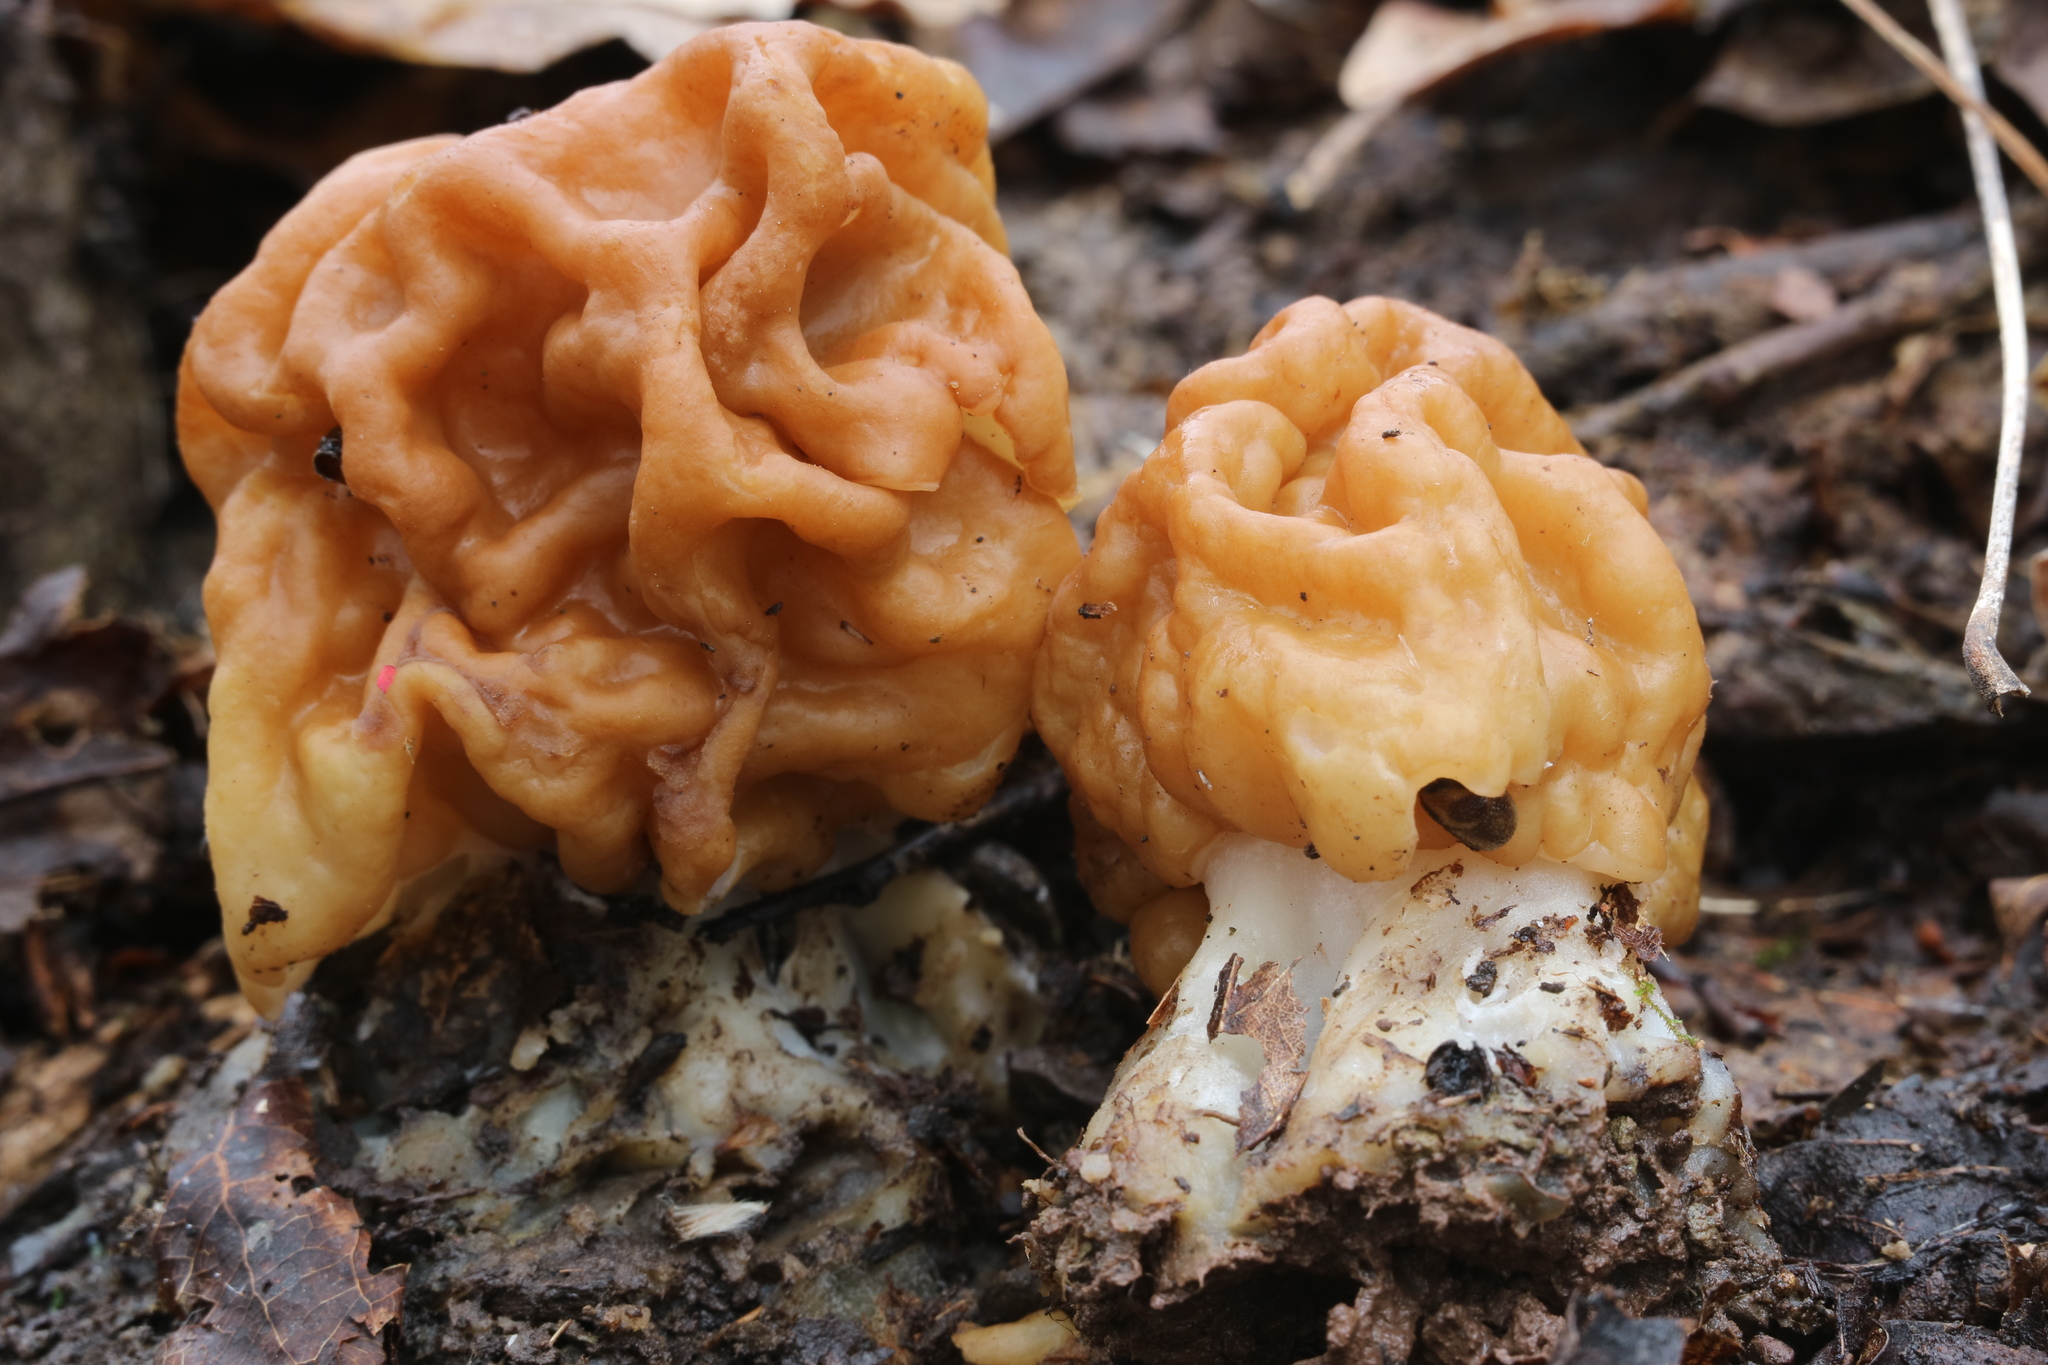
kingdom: Fungi
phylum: Ascomycota
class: Pezizomycetes
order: Pezizales
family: Discinaceae
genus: Gyromitra
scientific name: Gyromitra korfii
